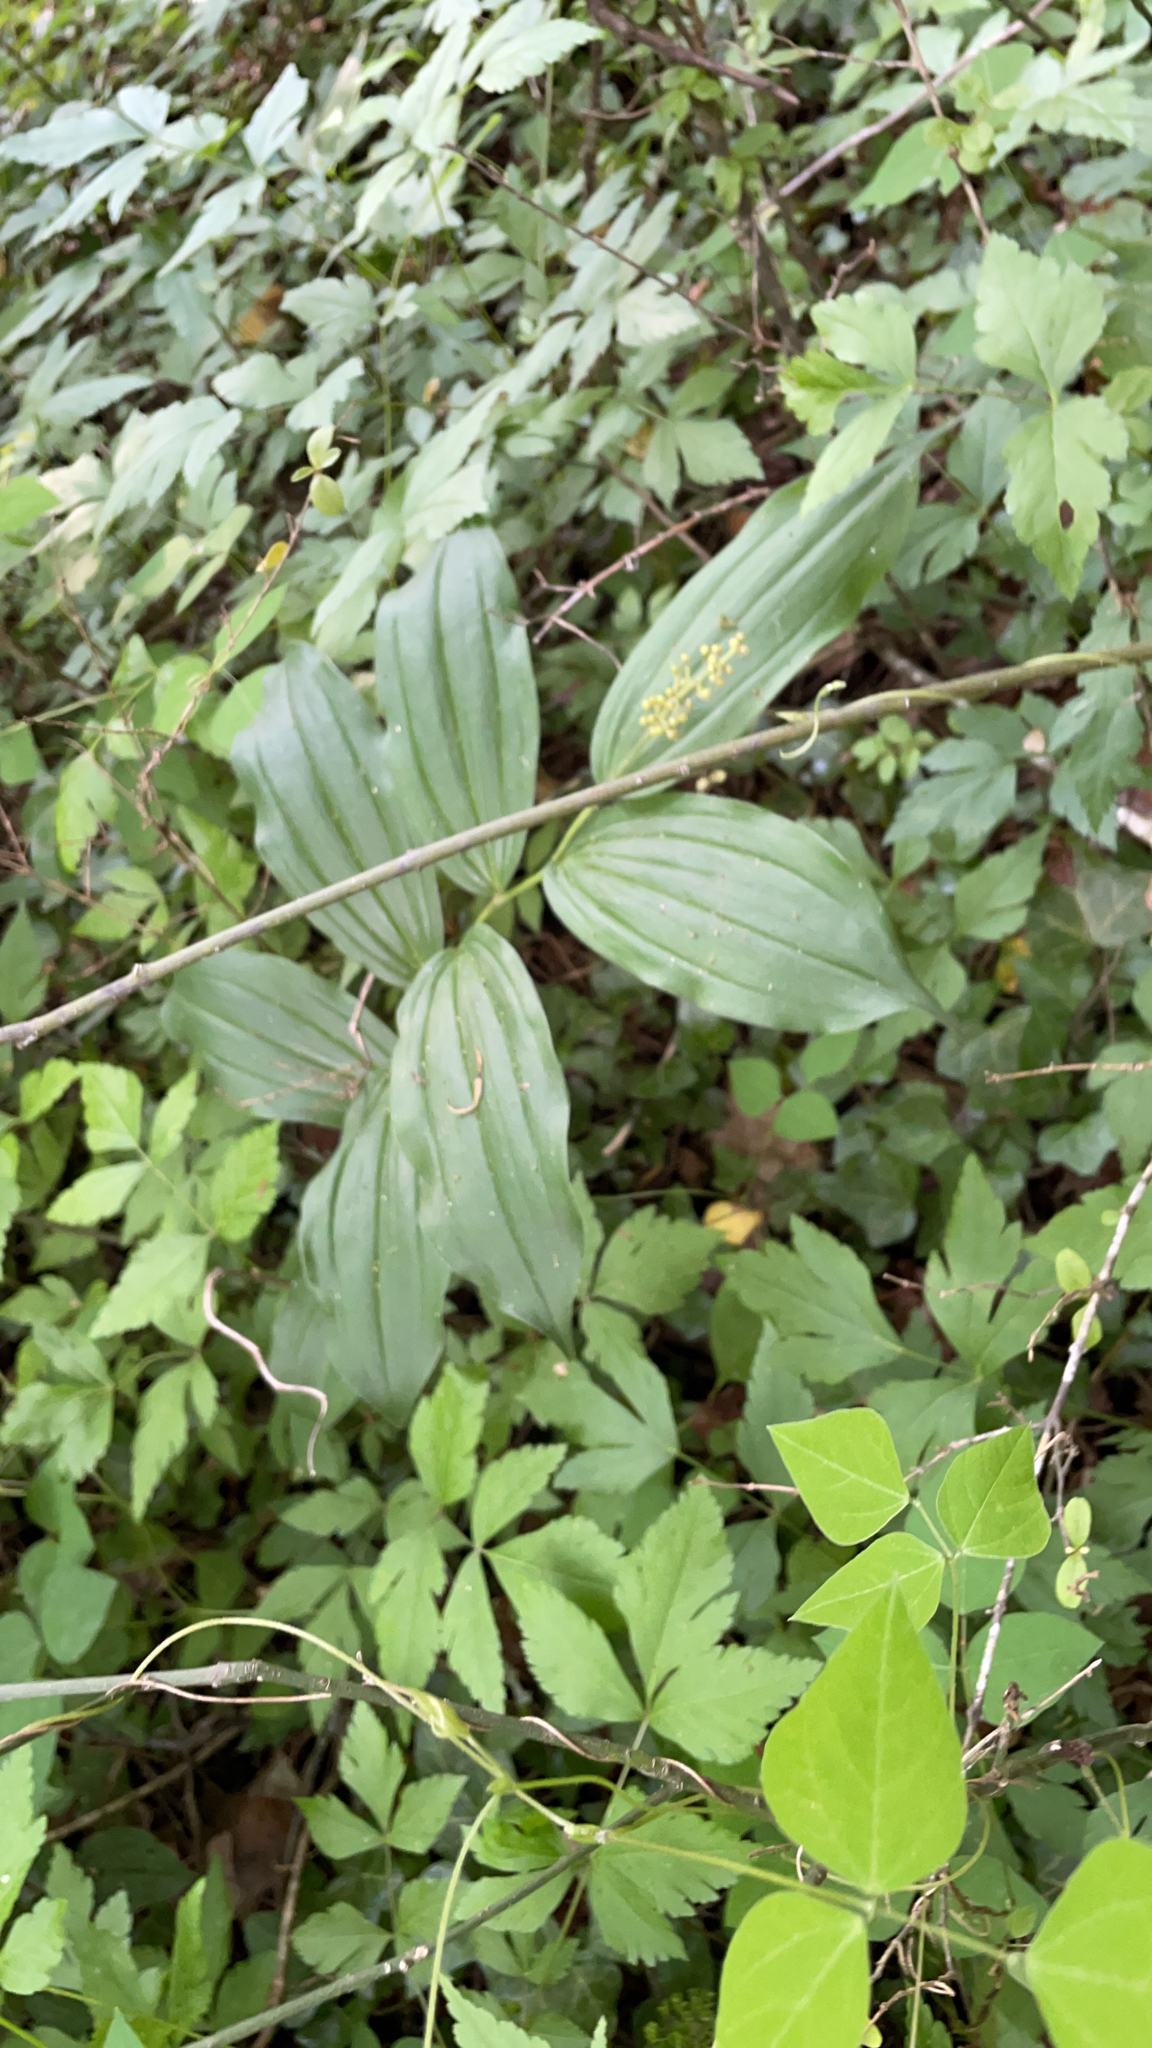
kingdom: Plantae
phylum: Tracheophyta
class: Liliopsida
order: Asparagales
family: Asparagaceae
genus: Maianthemum
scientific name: Maianthemum racemosum
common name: False spikenard
